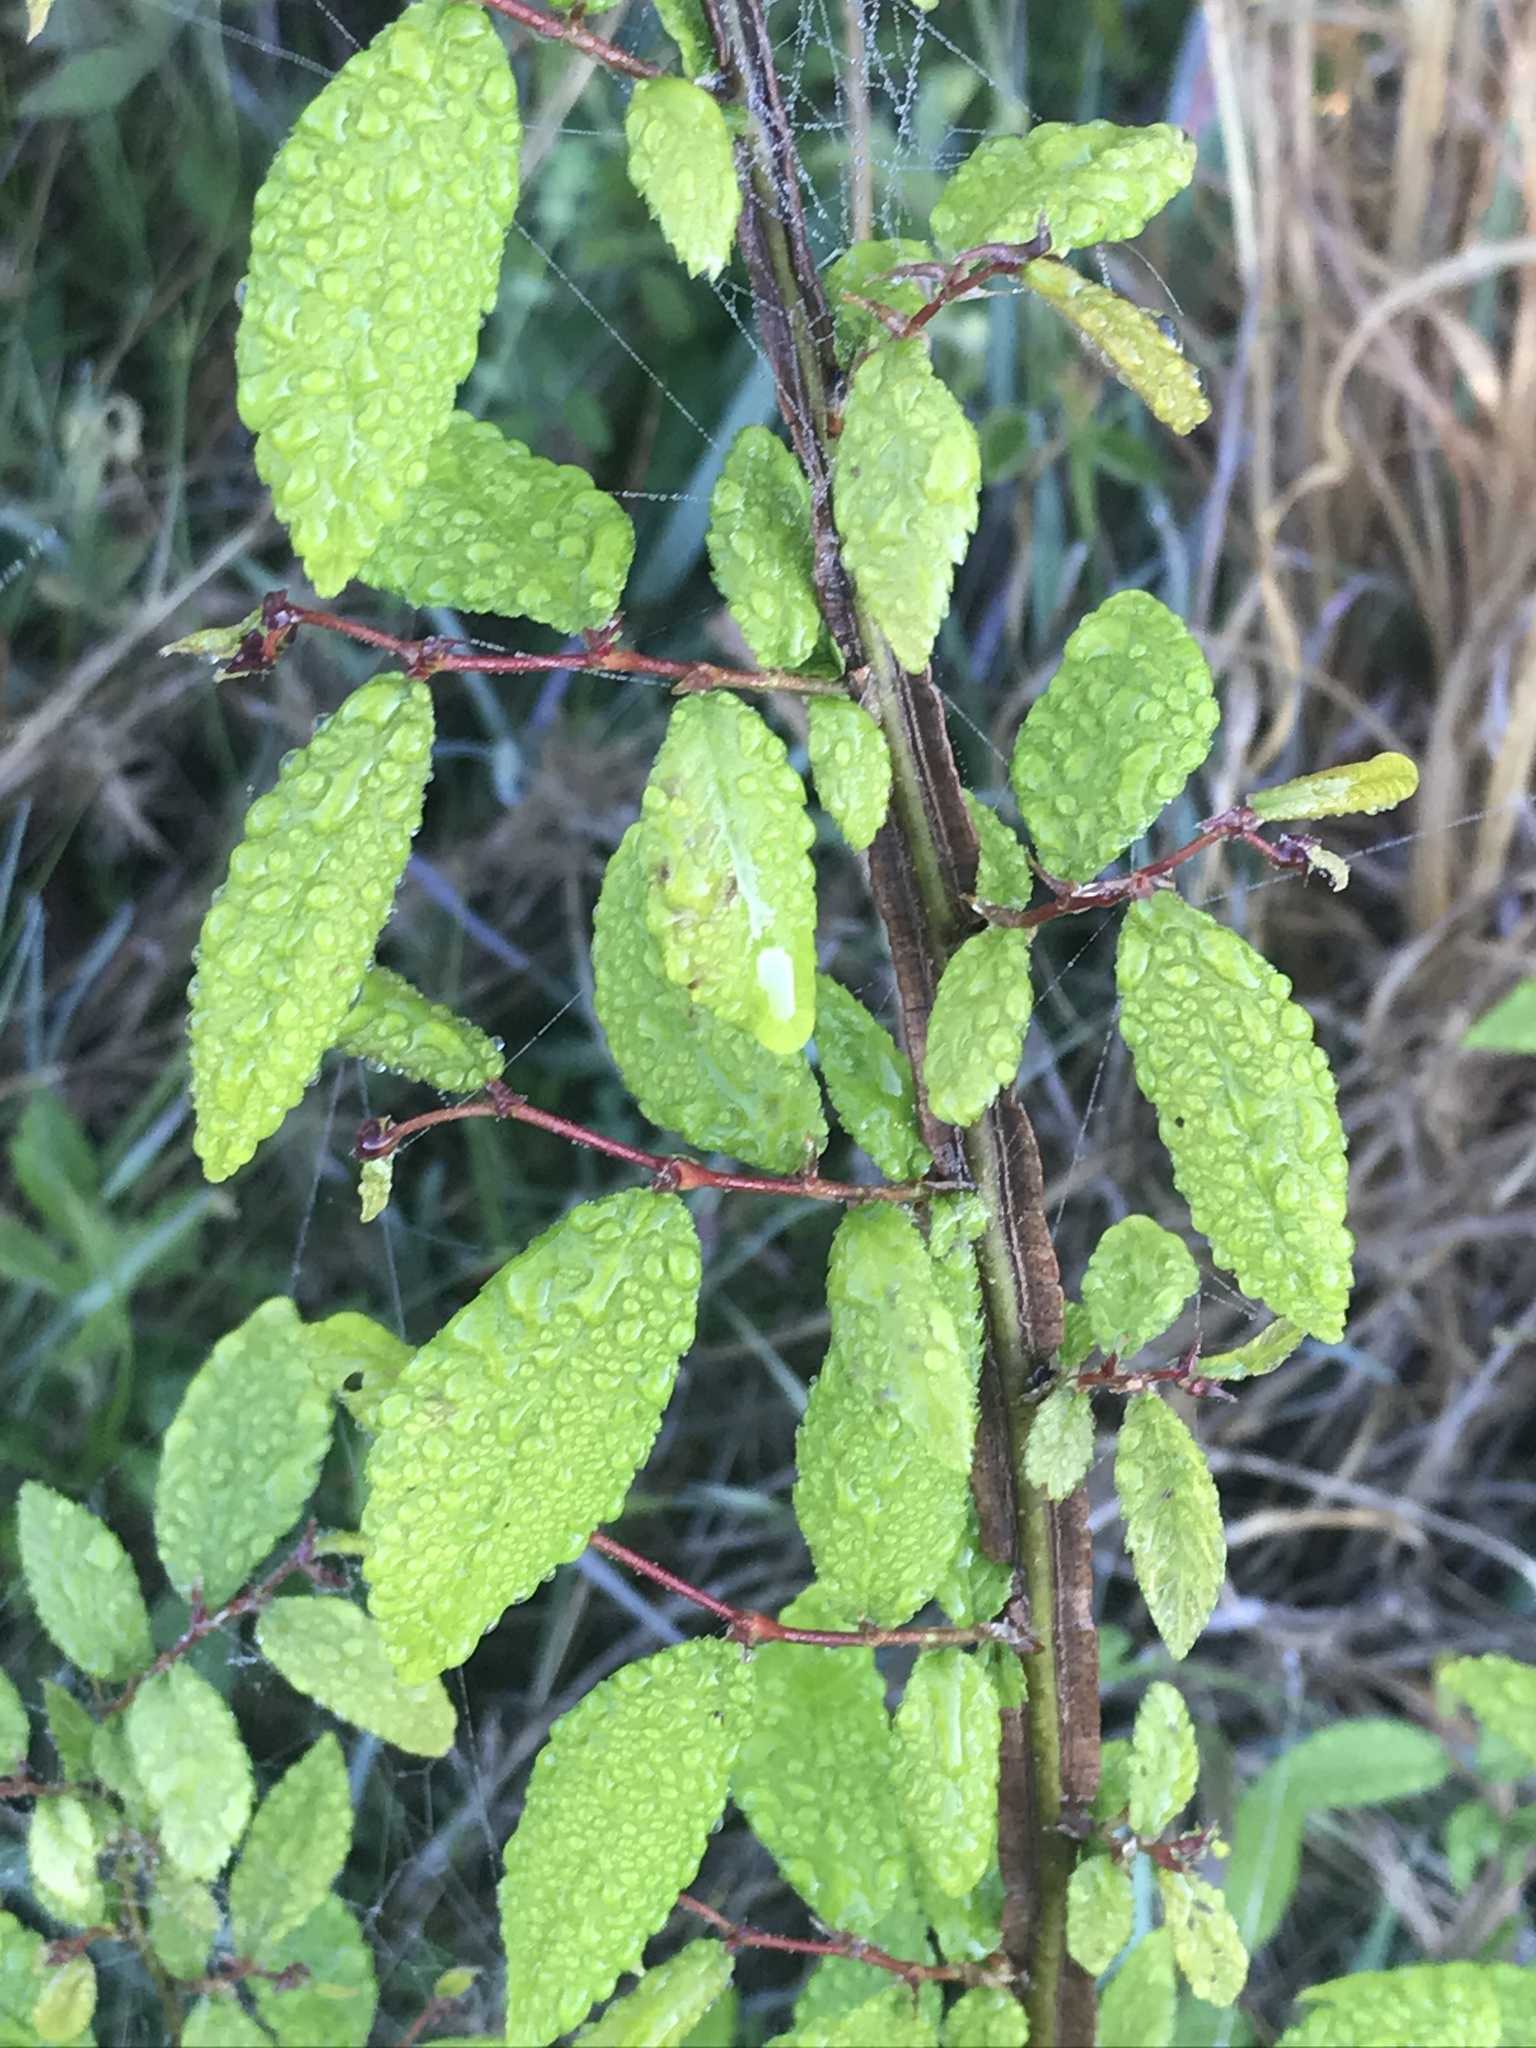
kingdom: Plantae
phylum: Tracheophyta
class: Magnoliopsida
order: Rosales
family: Ulmaceae
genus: Ulmus
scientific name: Ulmus alata
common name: Winged elm
